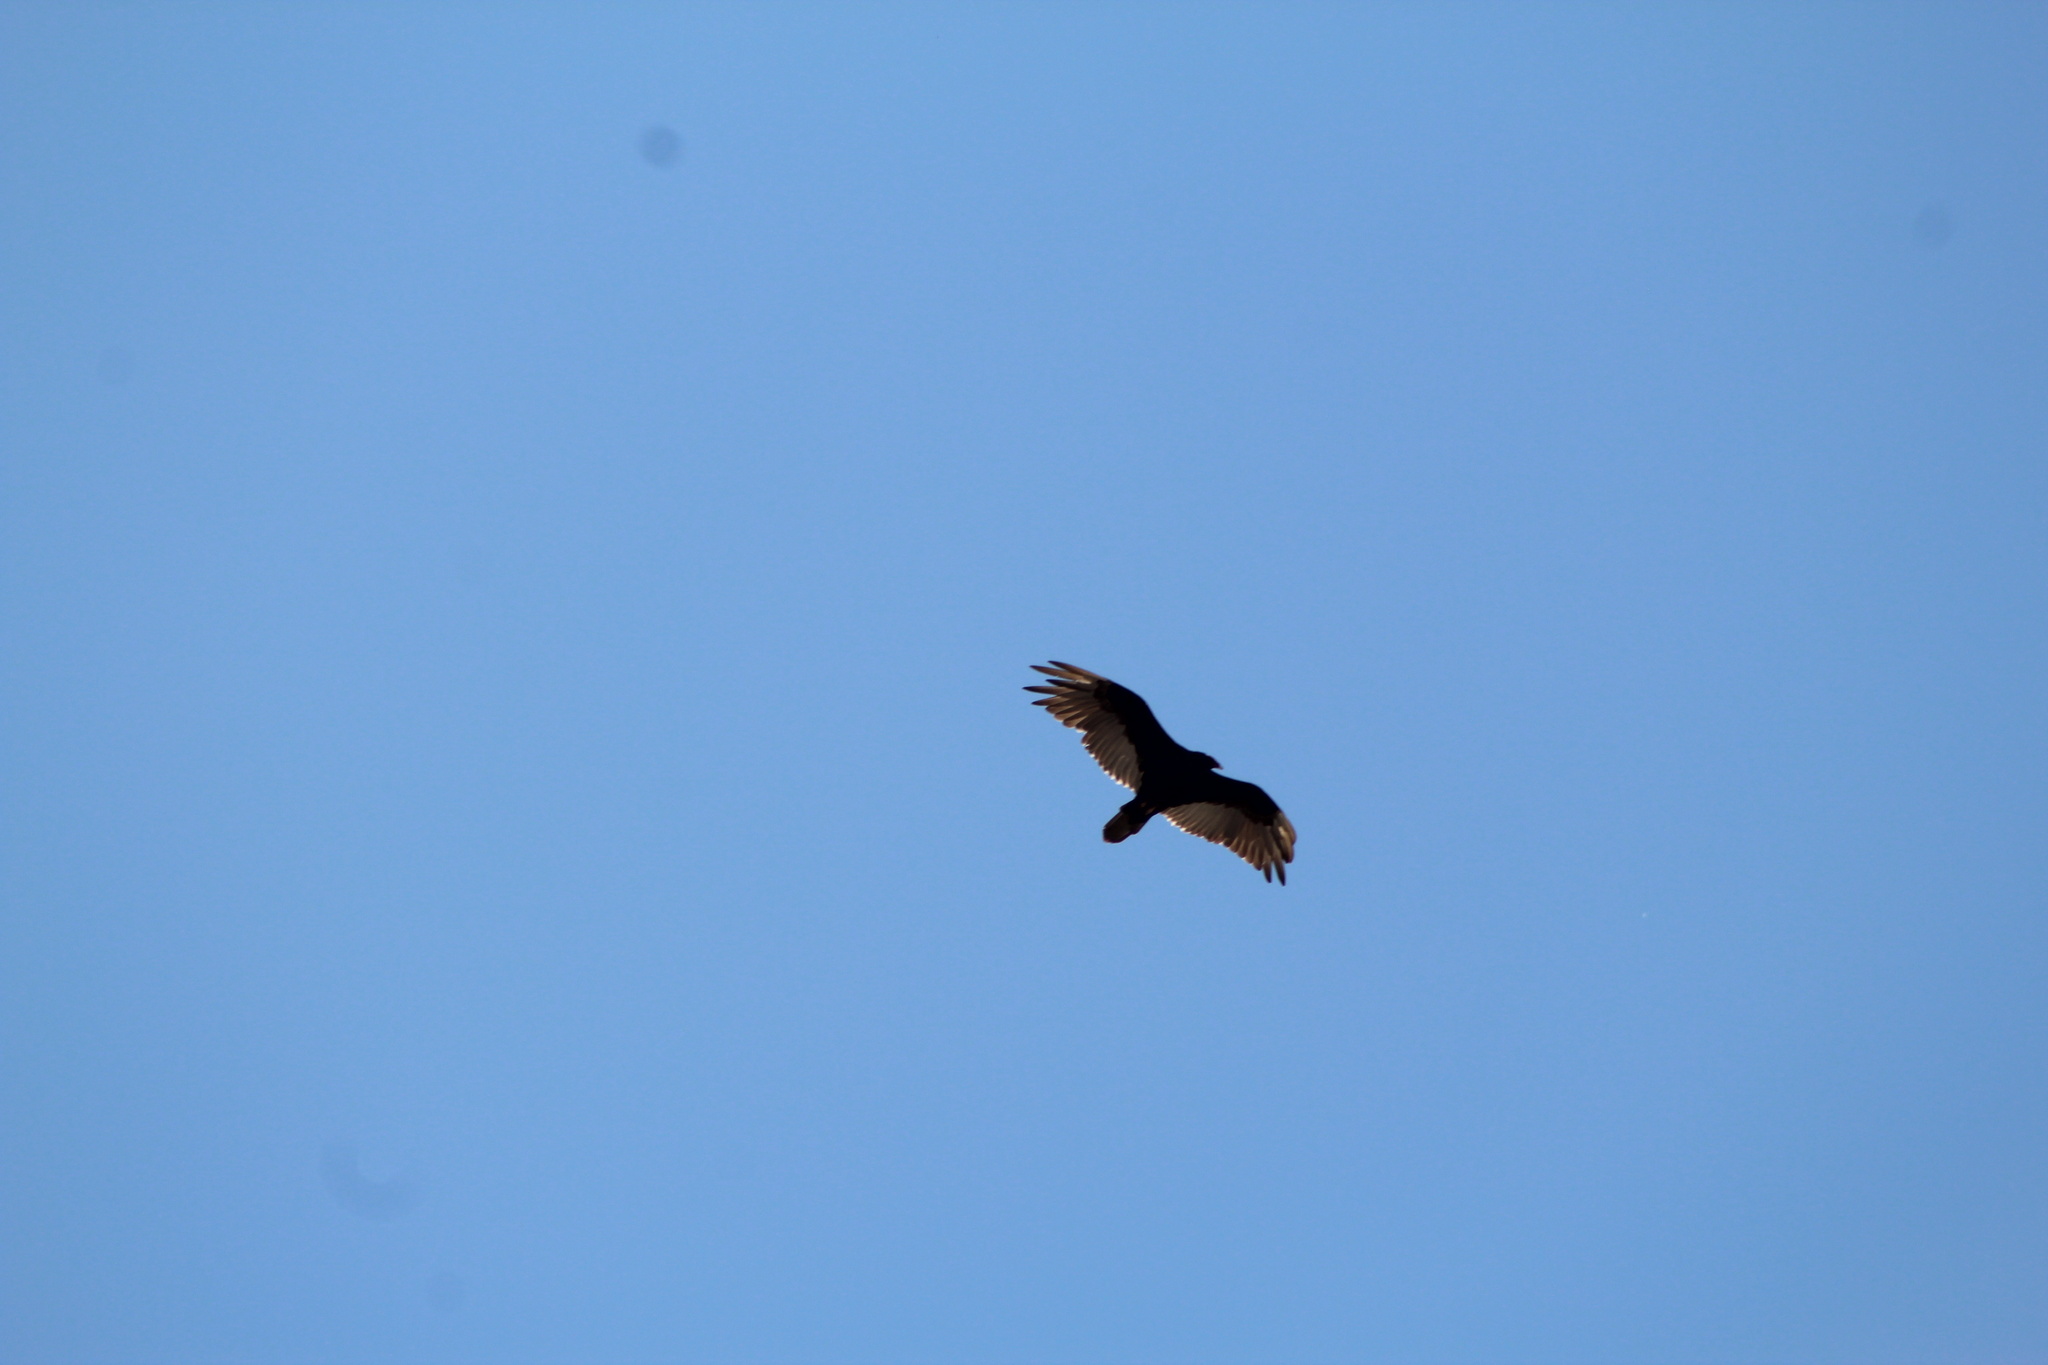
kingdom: Animalia
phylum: Chordata
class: Aves
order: Accipitriformes
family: Cathartidae
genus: Cathartes
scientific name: Cathartes aura
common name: Turkey vulture
